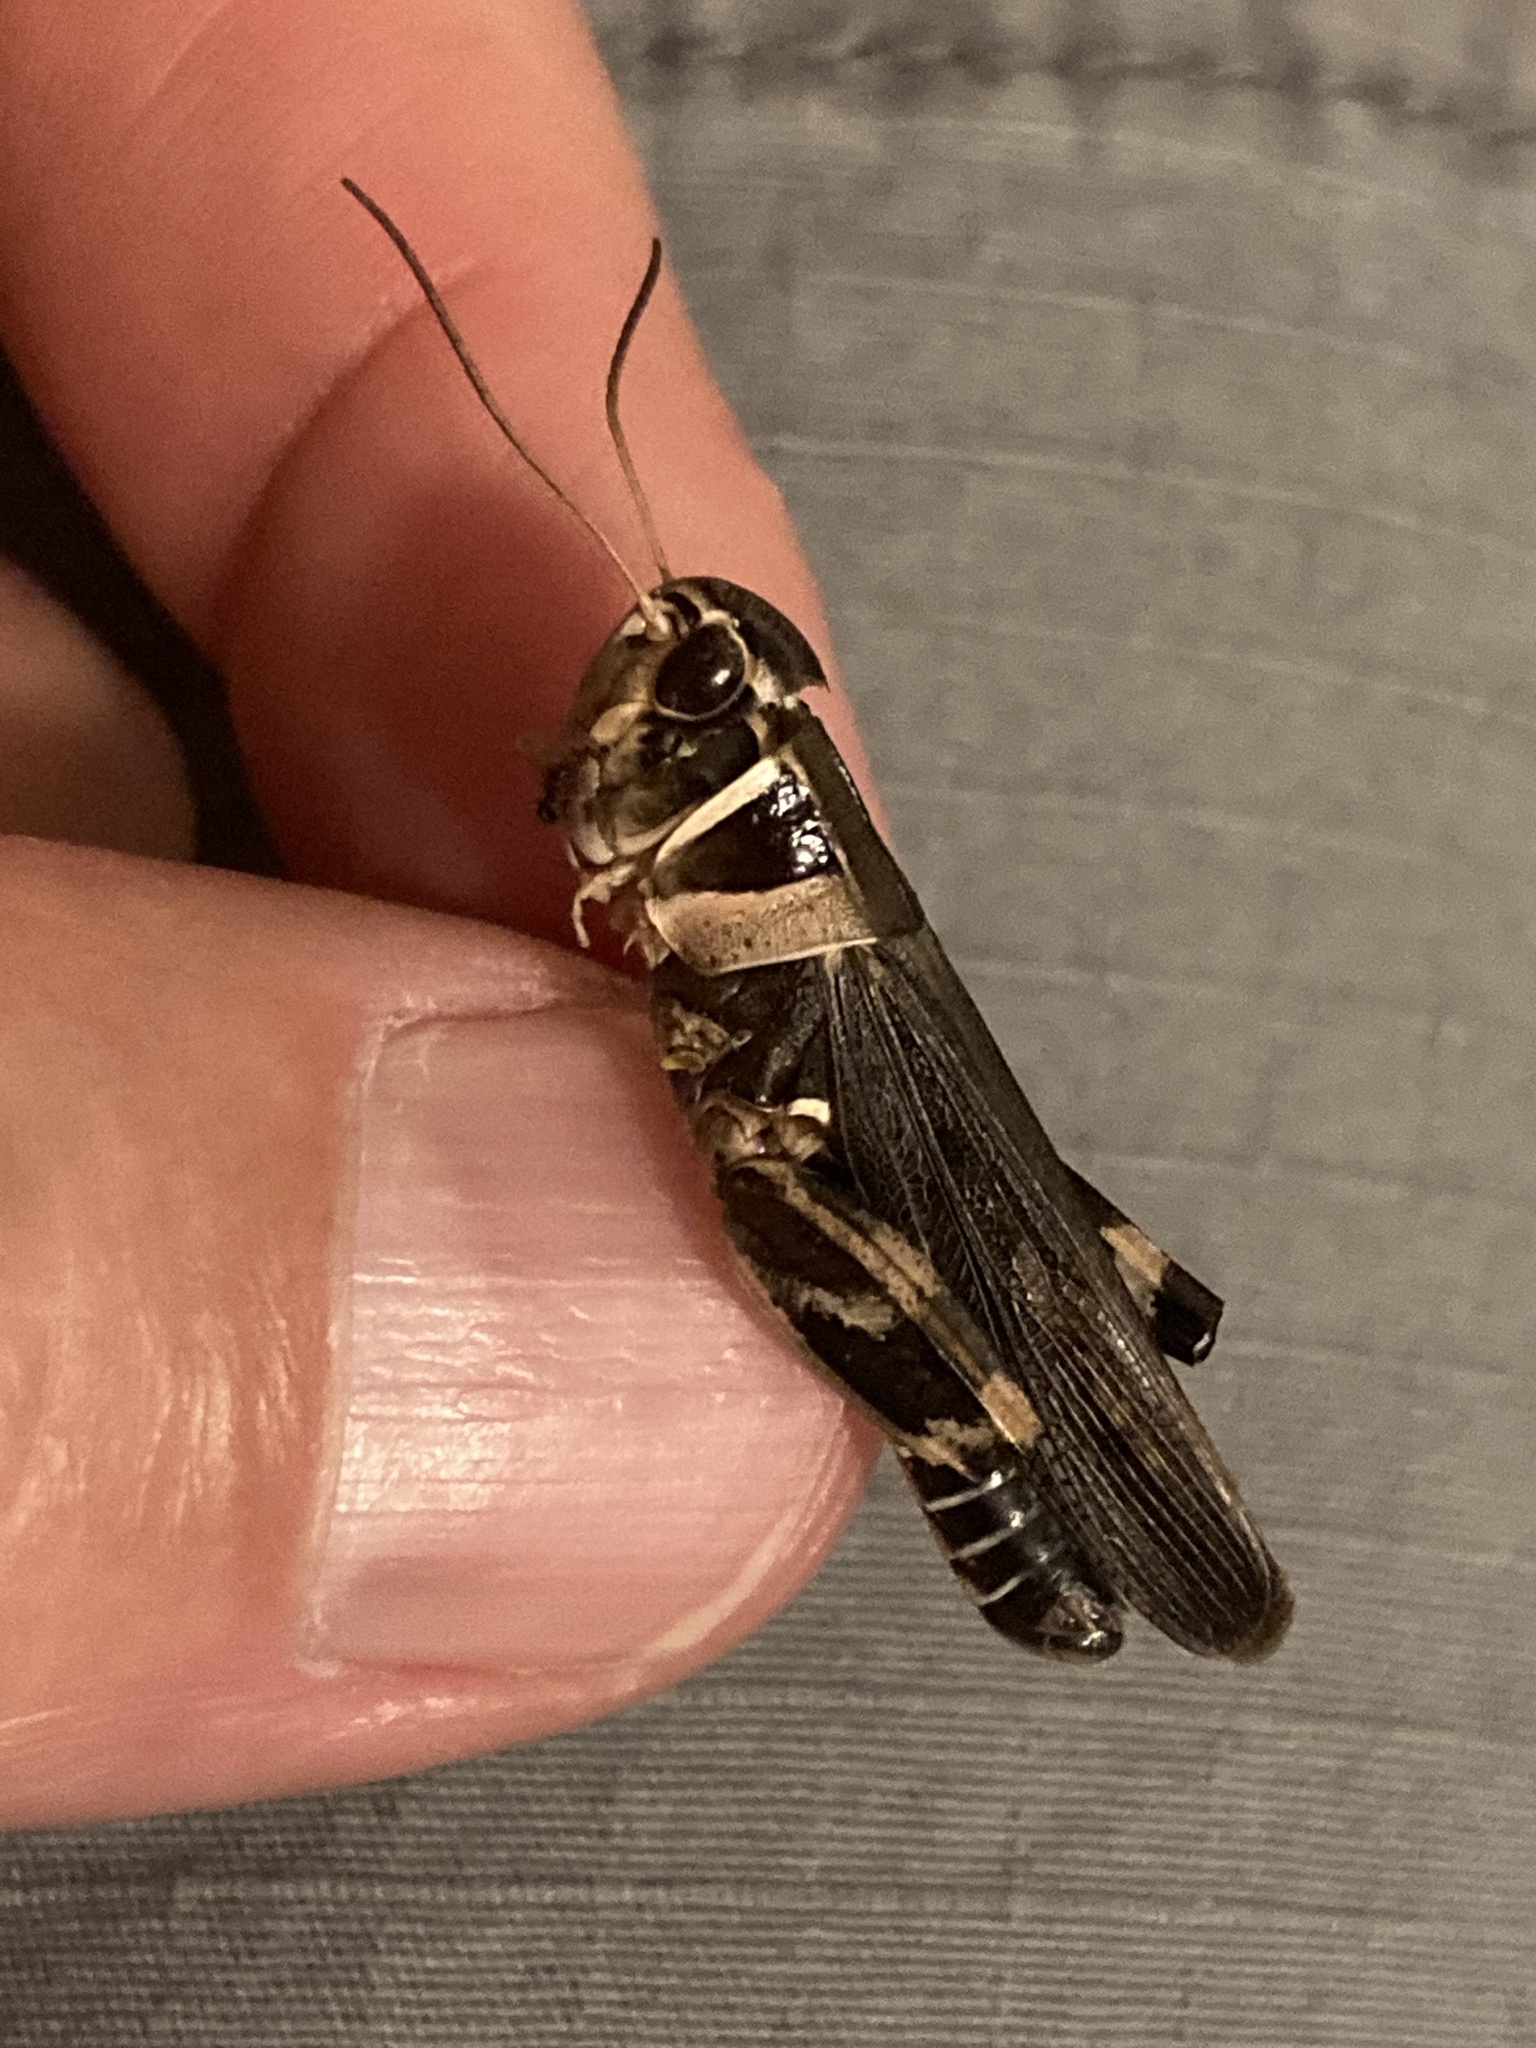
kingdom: Animalia
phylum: Arthropoda
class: Insecta
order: Orthoptera
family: Acrididae
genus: Boopedon
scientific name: Boopedon gracile
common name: Graceful range grasshopper
